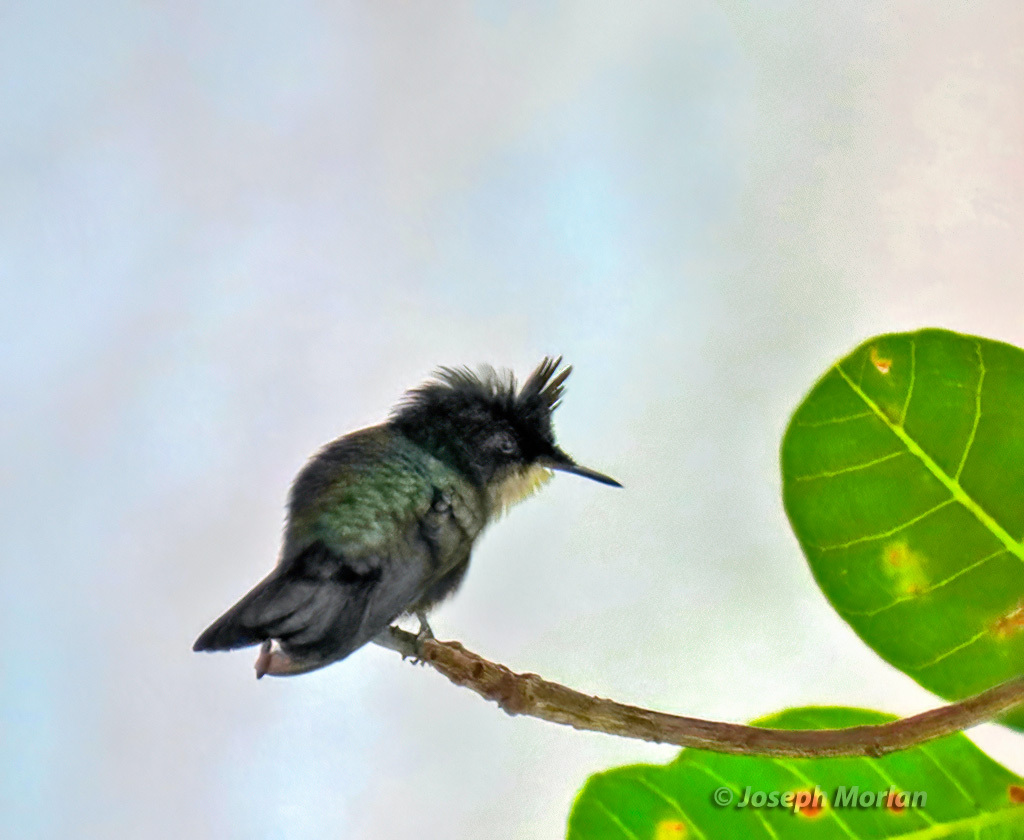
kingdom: Animalia
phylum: Chordata
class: Aves
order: Apodiformes
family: Trochilidae
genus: Orthorhyncus
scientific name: Orthorhyncus cristatus
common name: Antillean crested hummingbird
